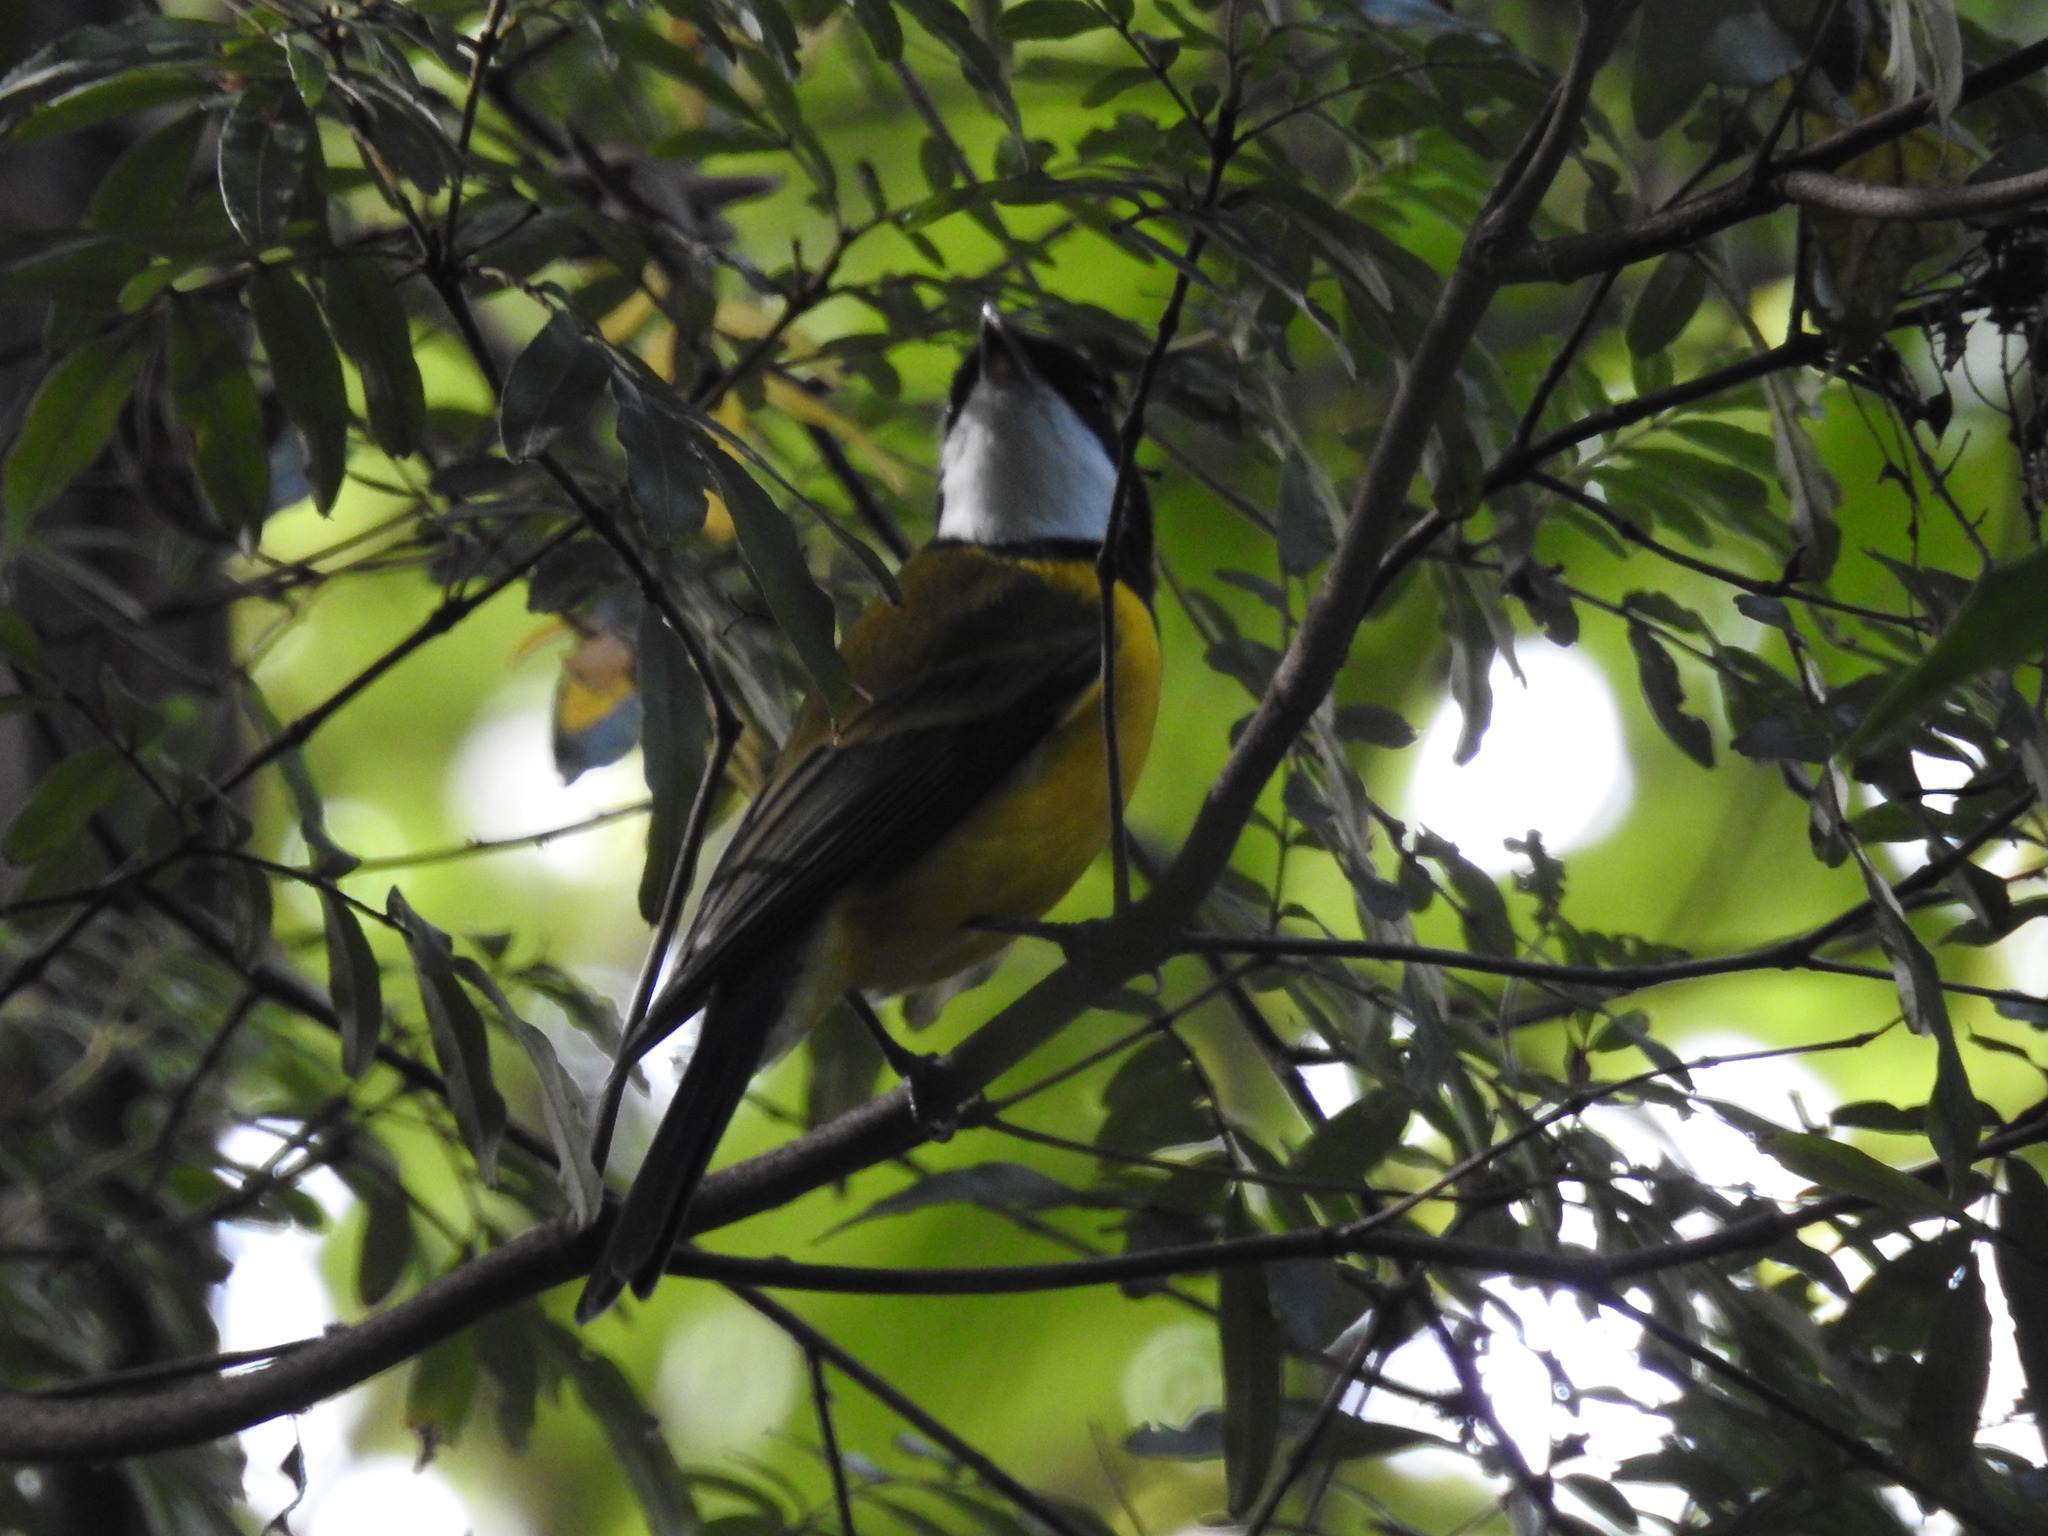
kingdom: Animalia
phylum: Chordata
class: Aves
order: Passeriformes
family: Pachycephalidae
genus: Pachycephala
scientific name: Pachycephala pectoralis
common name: Australian golden whistler
